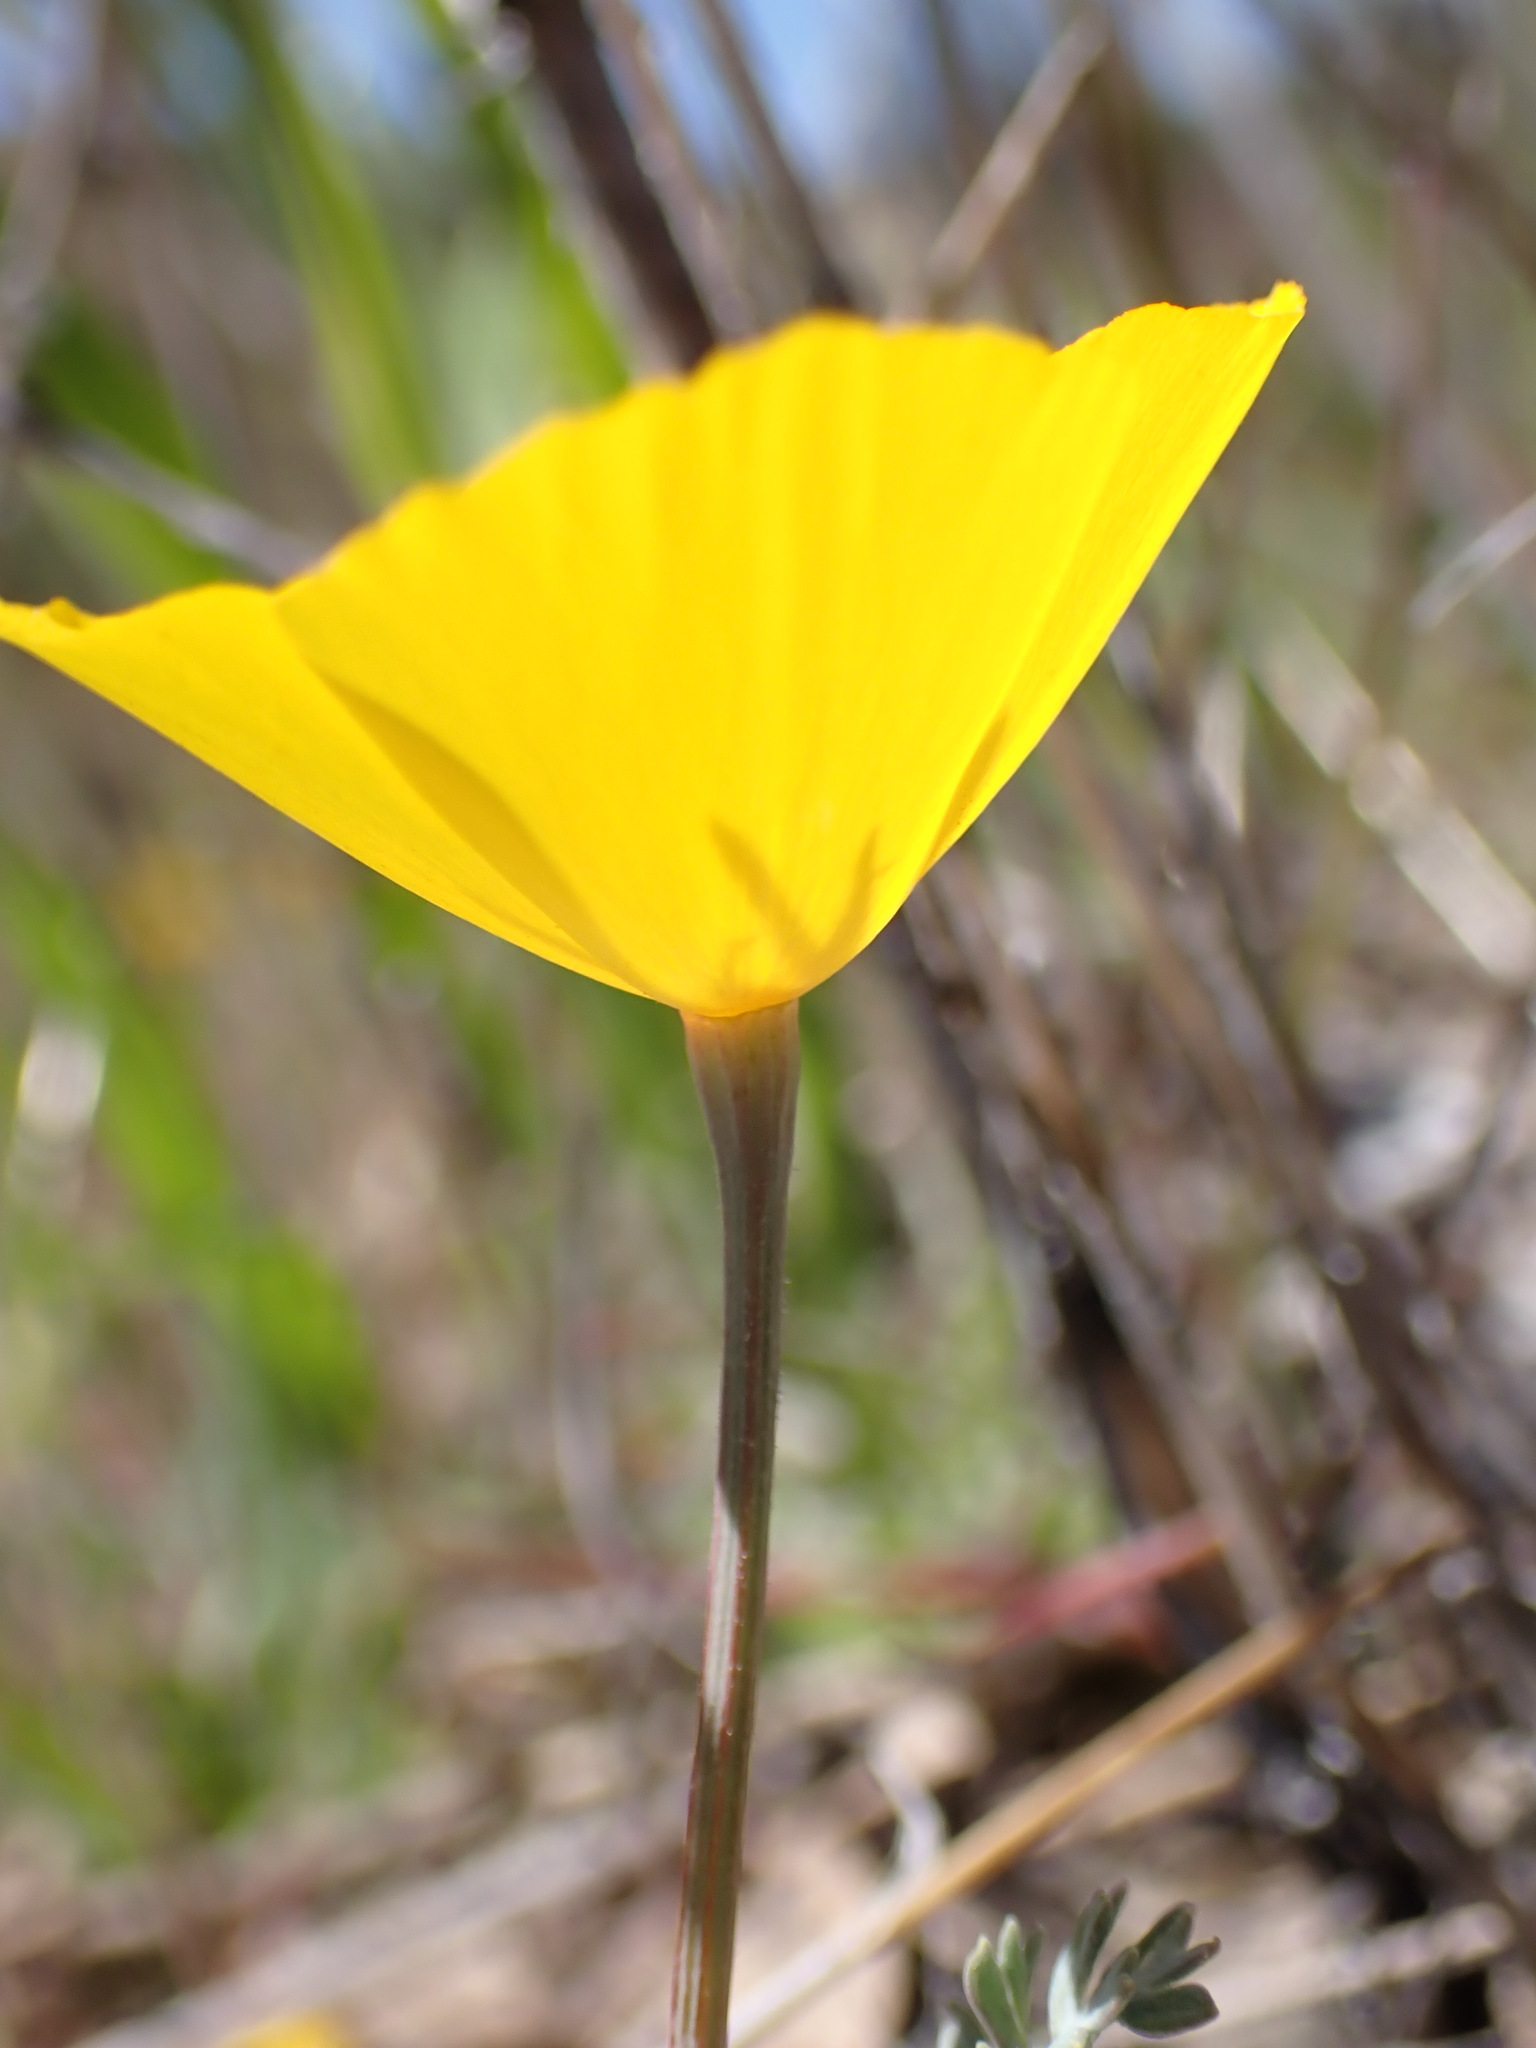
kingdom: Plantae
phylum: Tracheophyta
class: Magnoliopsida
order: Ranunculales
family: Papaveraceae
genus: Eschscholzia
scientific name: Eschscholzia caespitosa
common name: Tufted california-poppy
